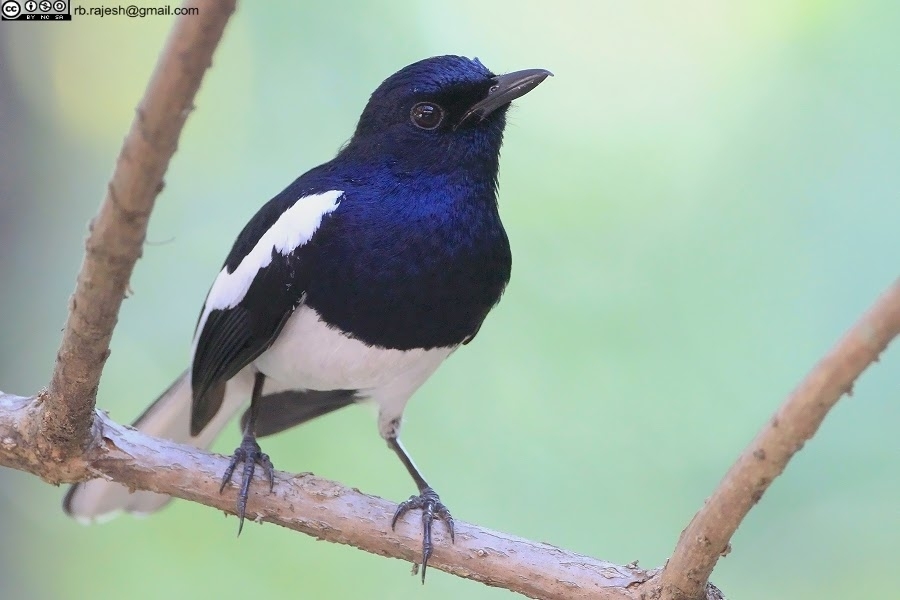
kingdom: Animalia
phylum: Chordata
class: Aves
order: Passeriformes
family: Muscicapidae
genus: Copsychus
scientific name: Copsychus saularis
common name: Oriental magpie-robin
